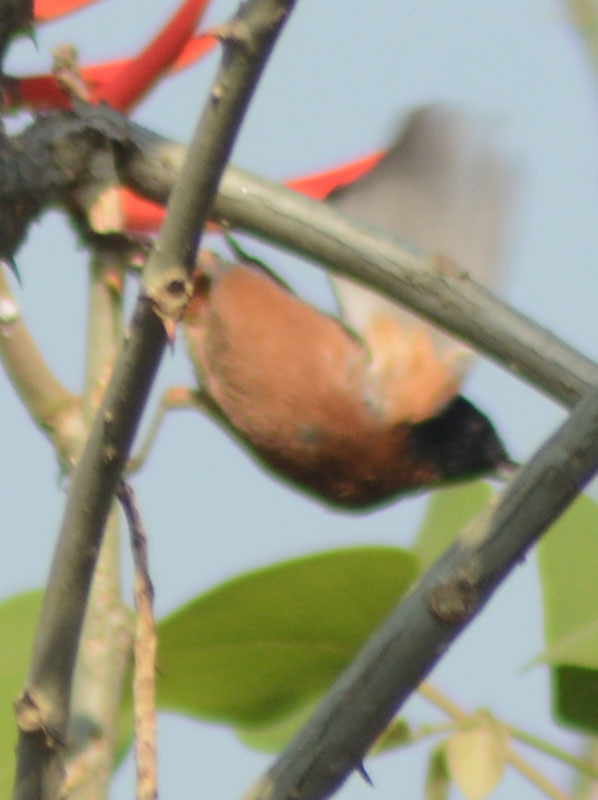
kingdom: Animalia
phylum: Chordata
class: Aves
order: Passeriformes
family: Thraupidae
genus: Diglossa
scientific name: Diglossa baritula
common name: Cinnamon-bellied flowerpiercer
